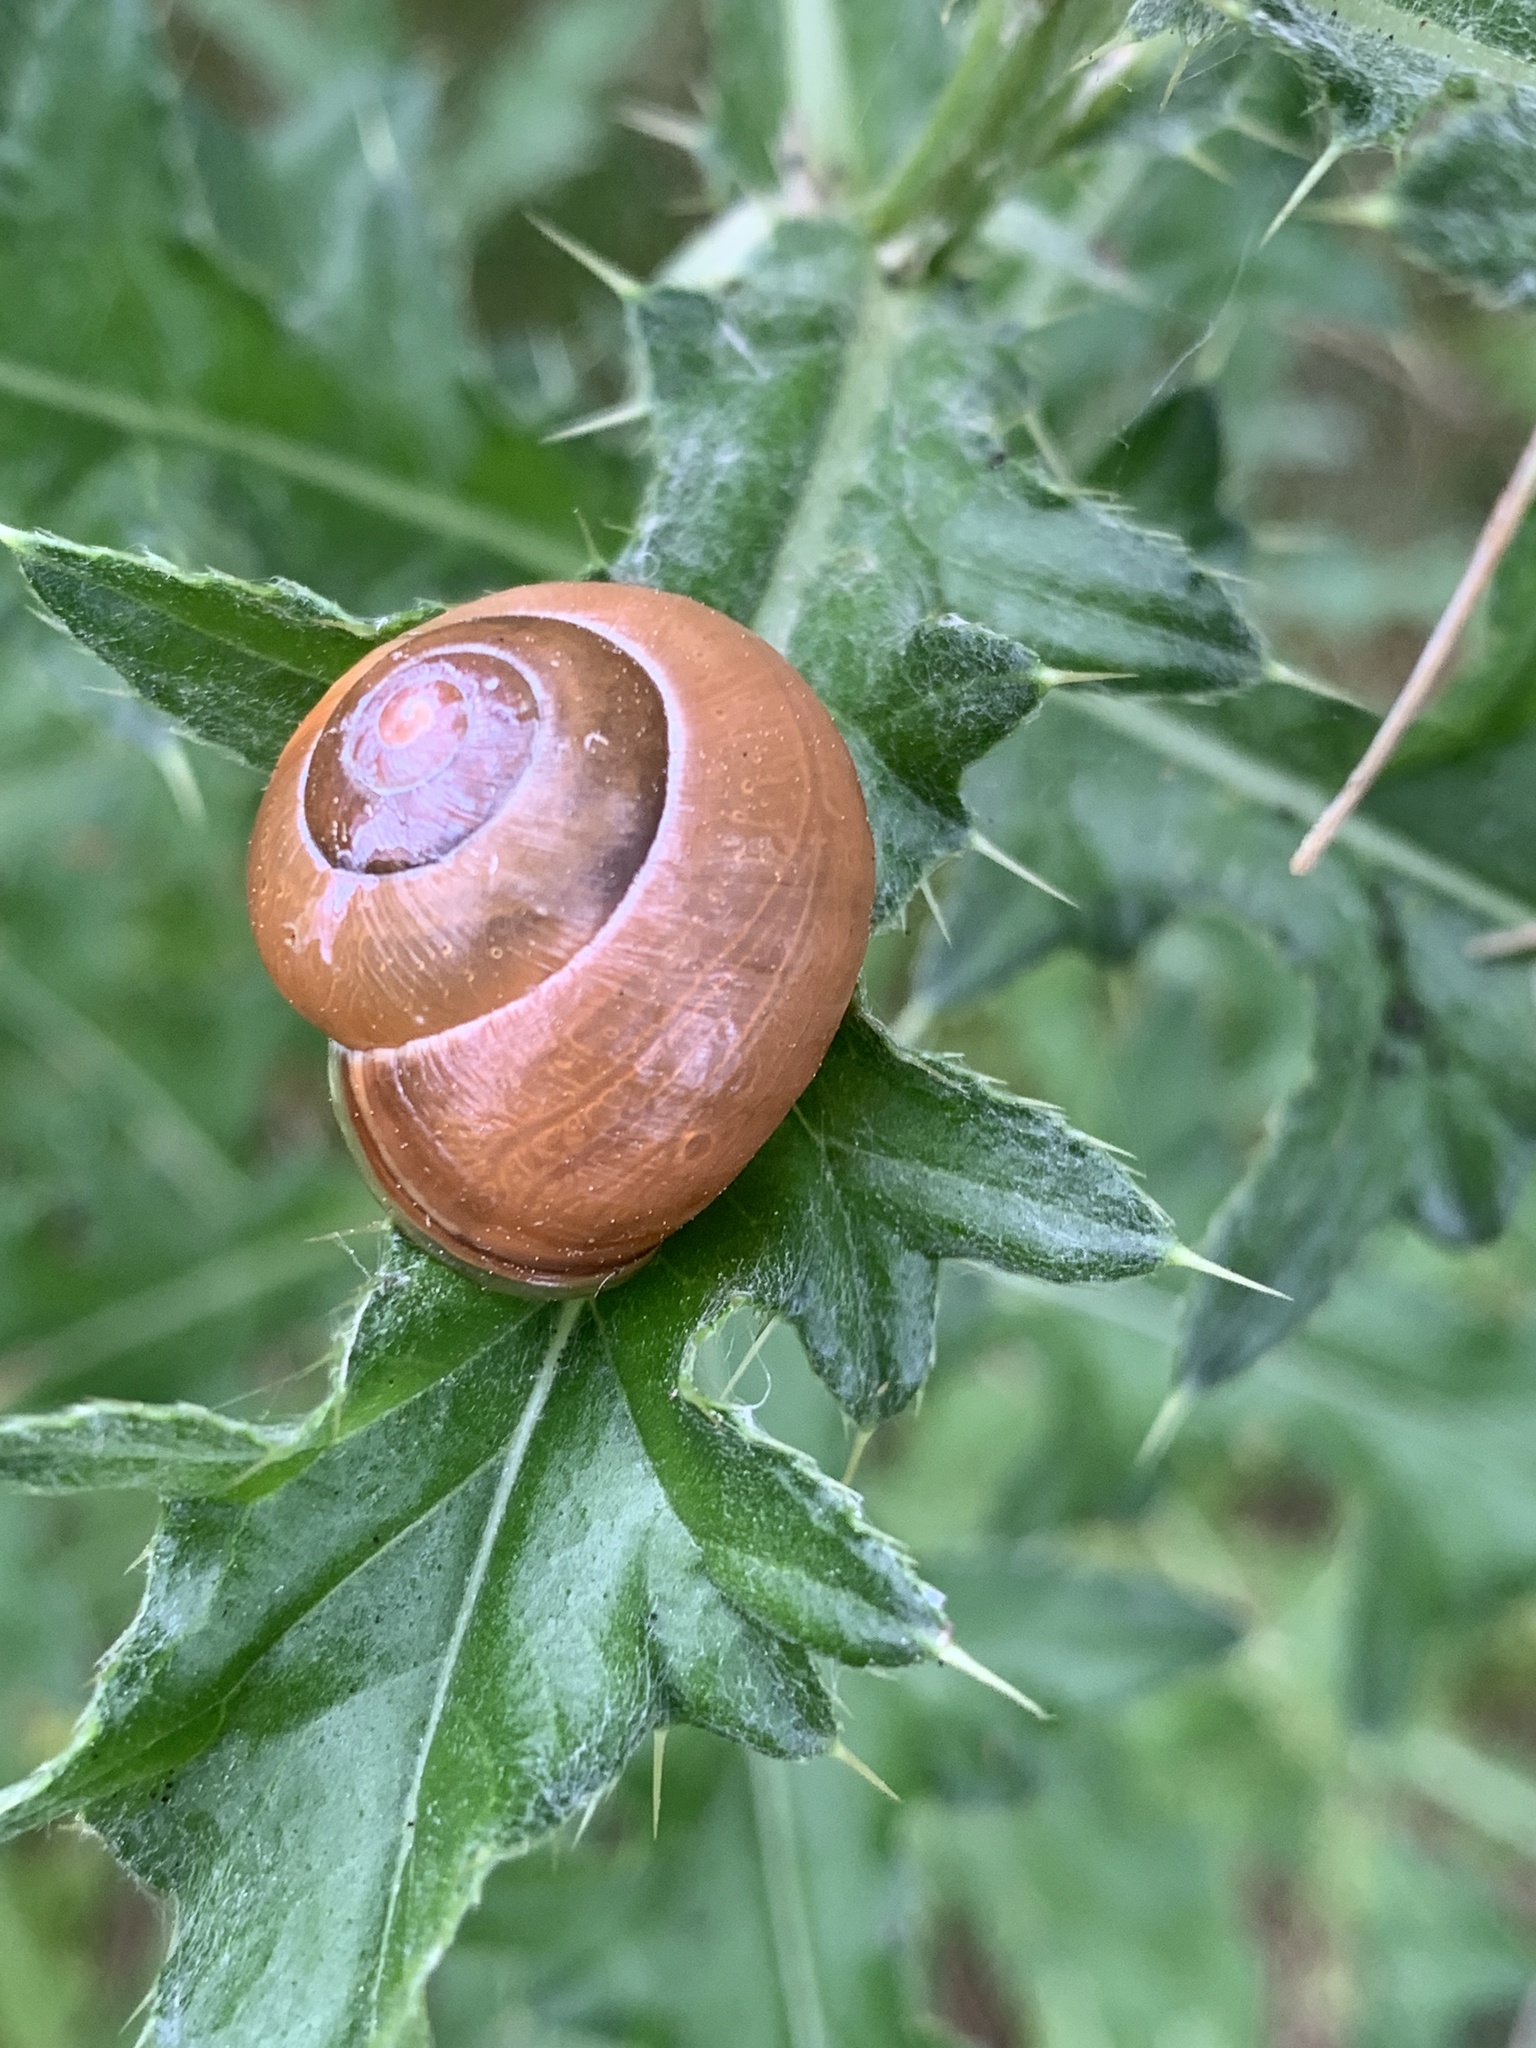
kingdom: Animalia
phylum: Mollusca
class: Gastropoda
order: Stylommatophora
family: Helicidae
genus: Cepaea
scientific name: Cepaea nemoralis
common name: Grovesnail
